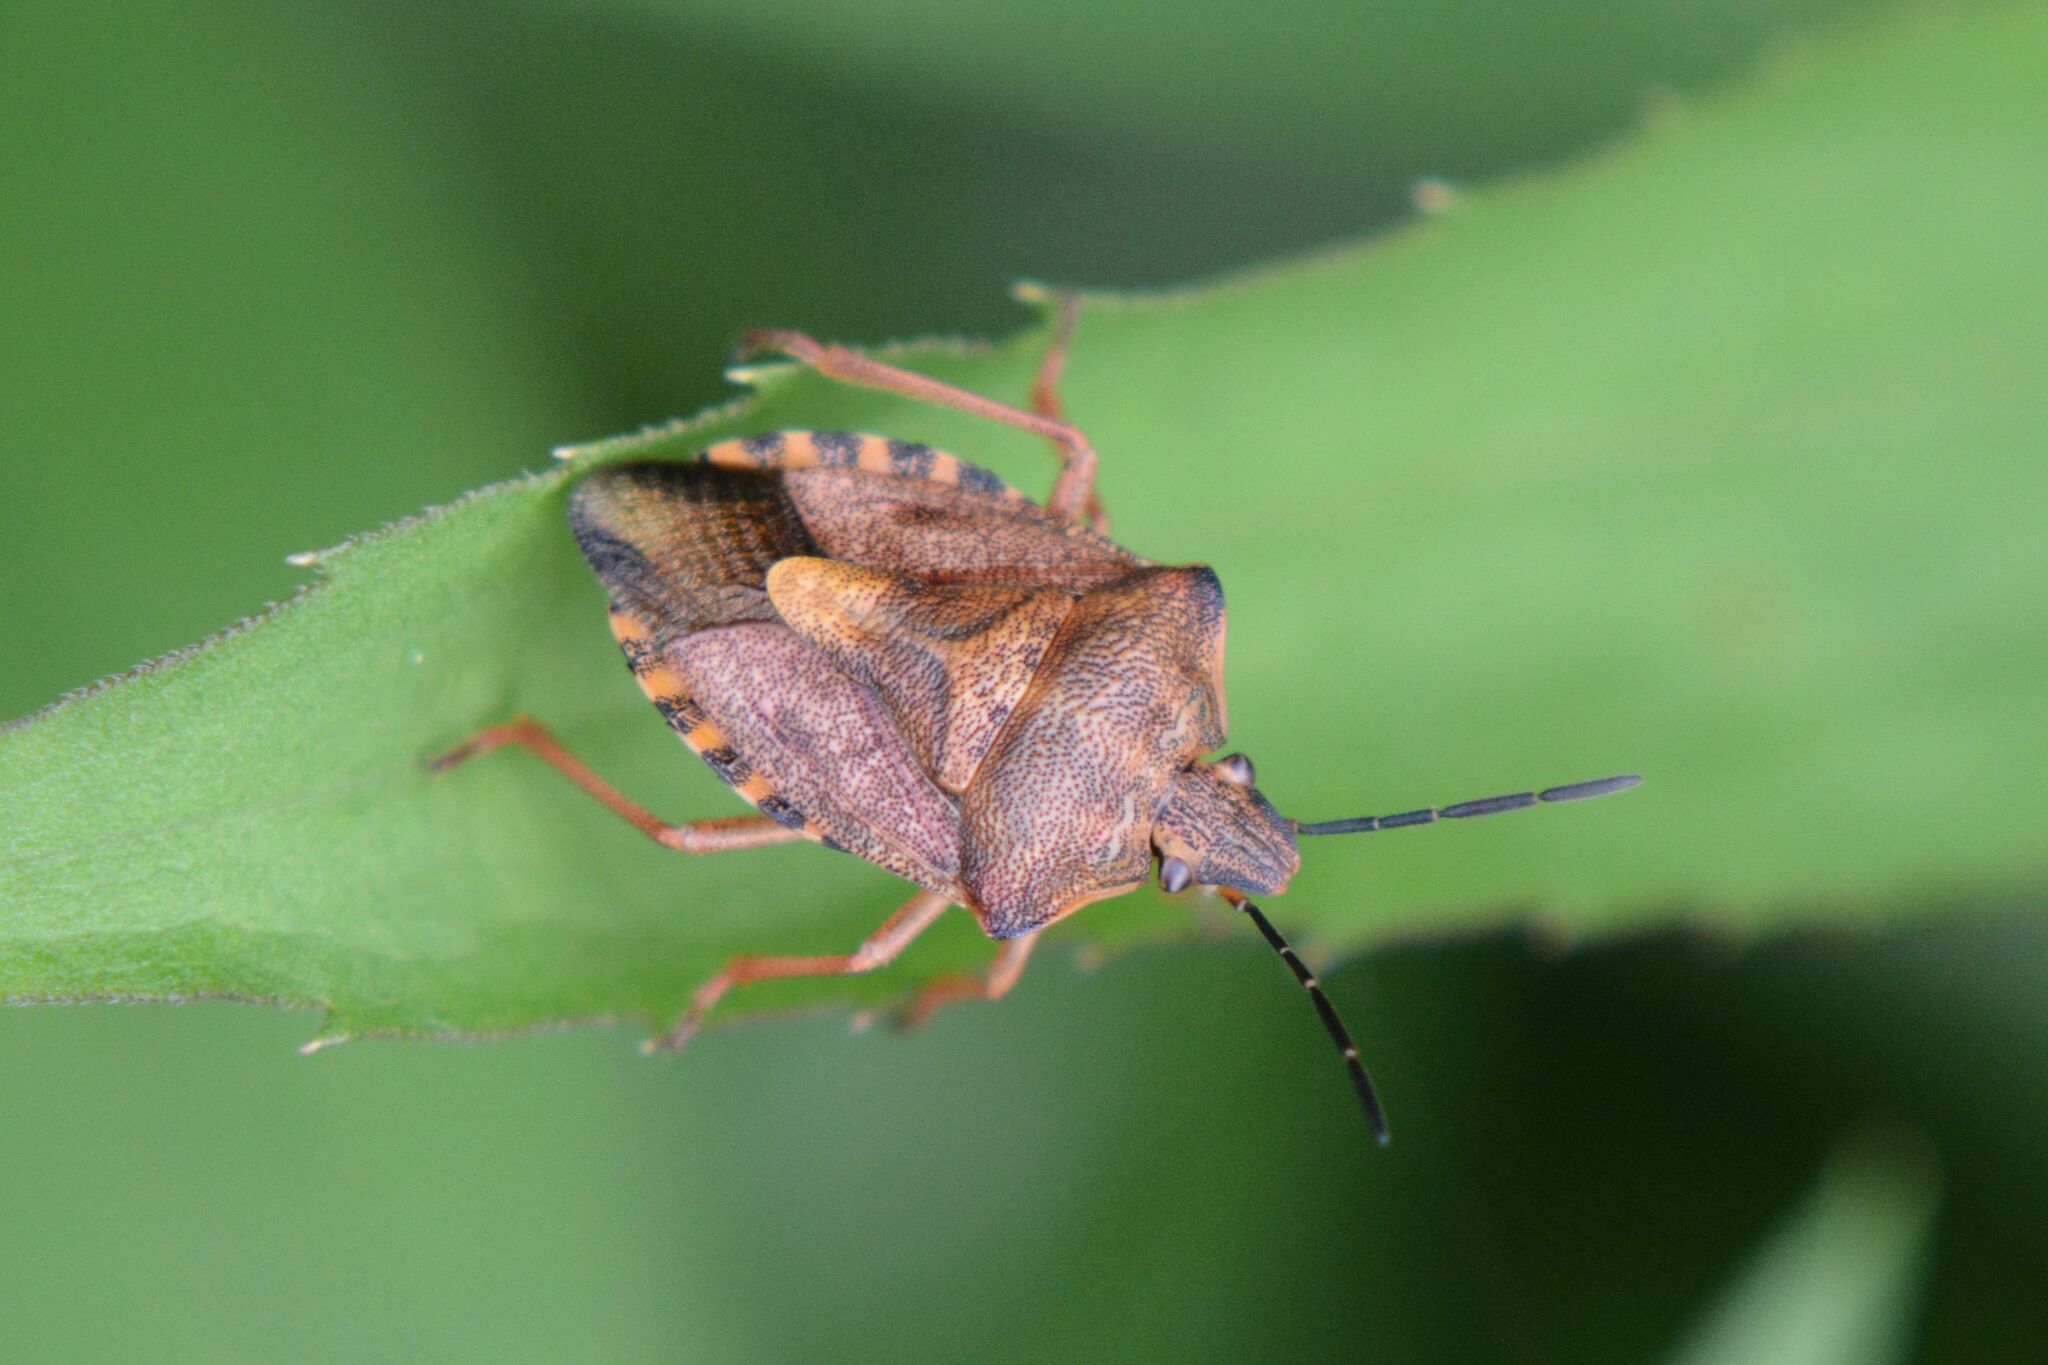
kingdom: Animalia
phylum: Arthropoda
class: Insecta
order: Hemiptera
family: Pentatomidae
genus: Carpocoris
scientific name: Carpocoris purpureipennis
